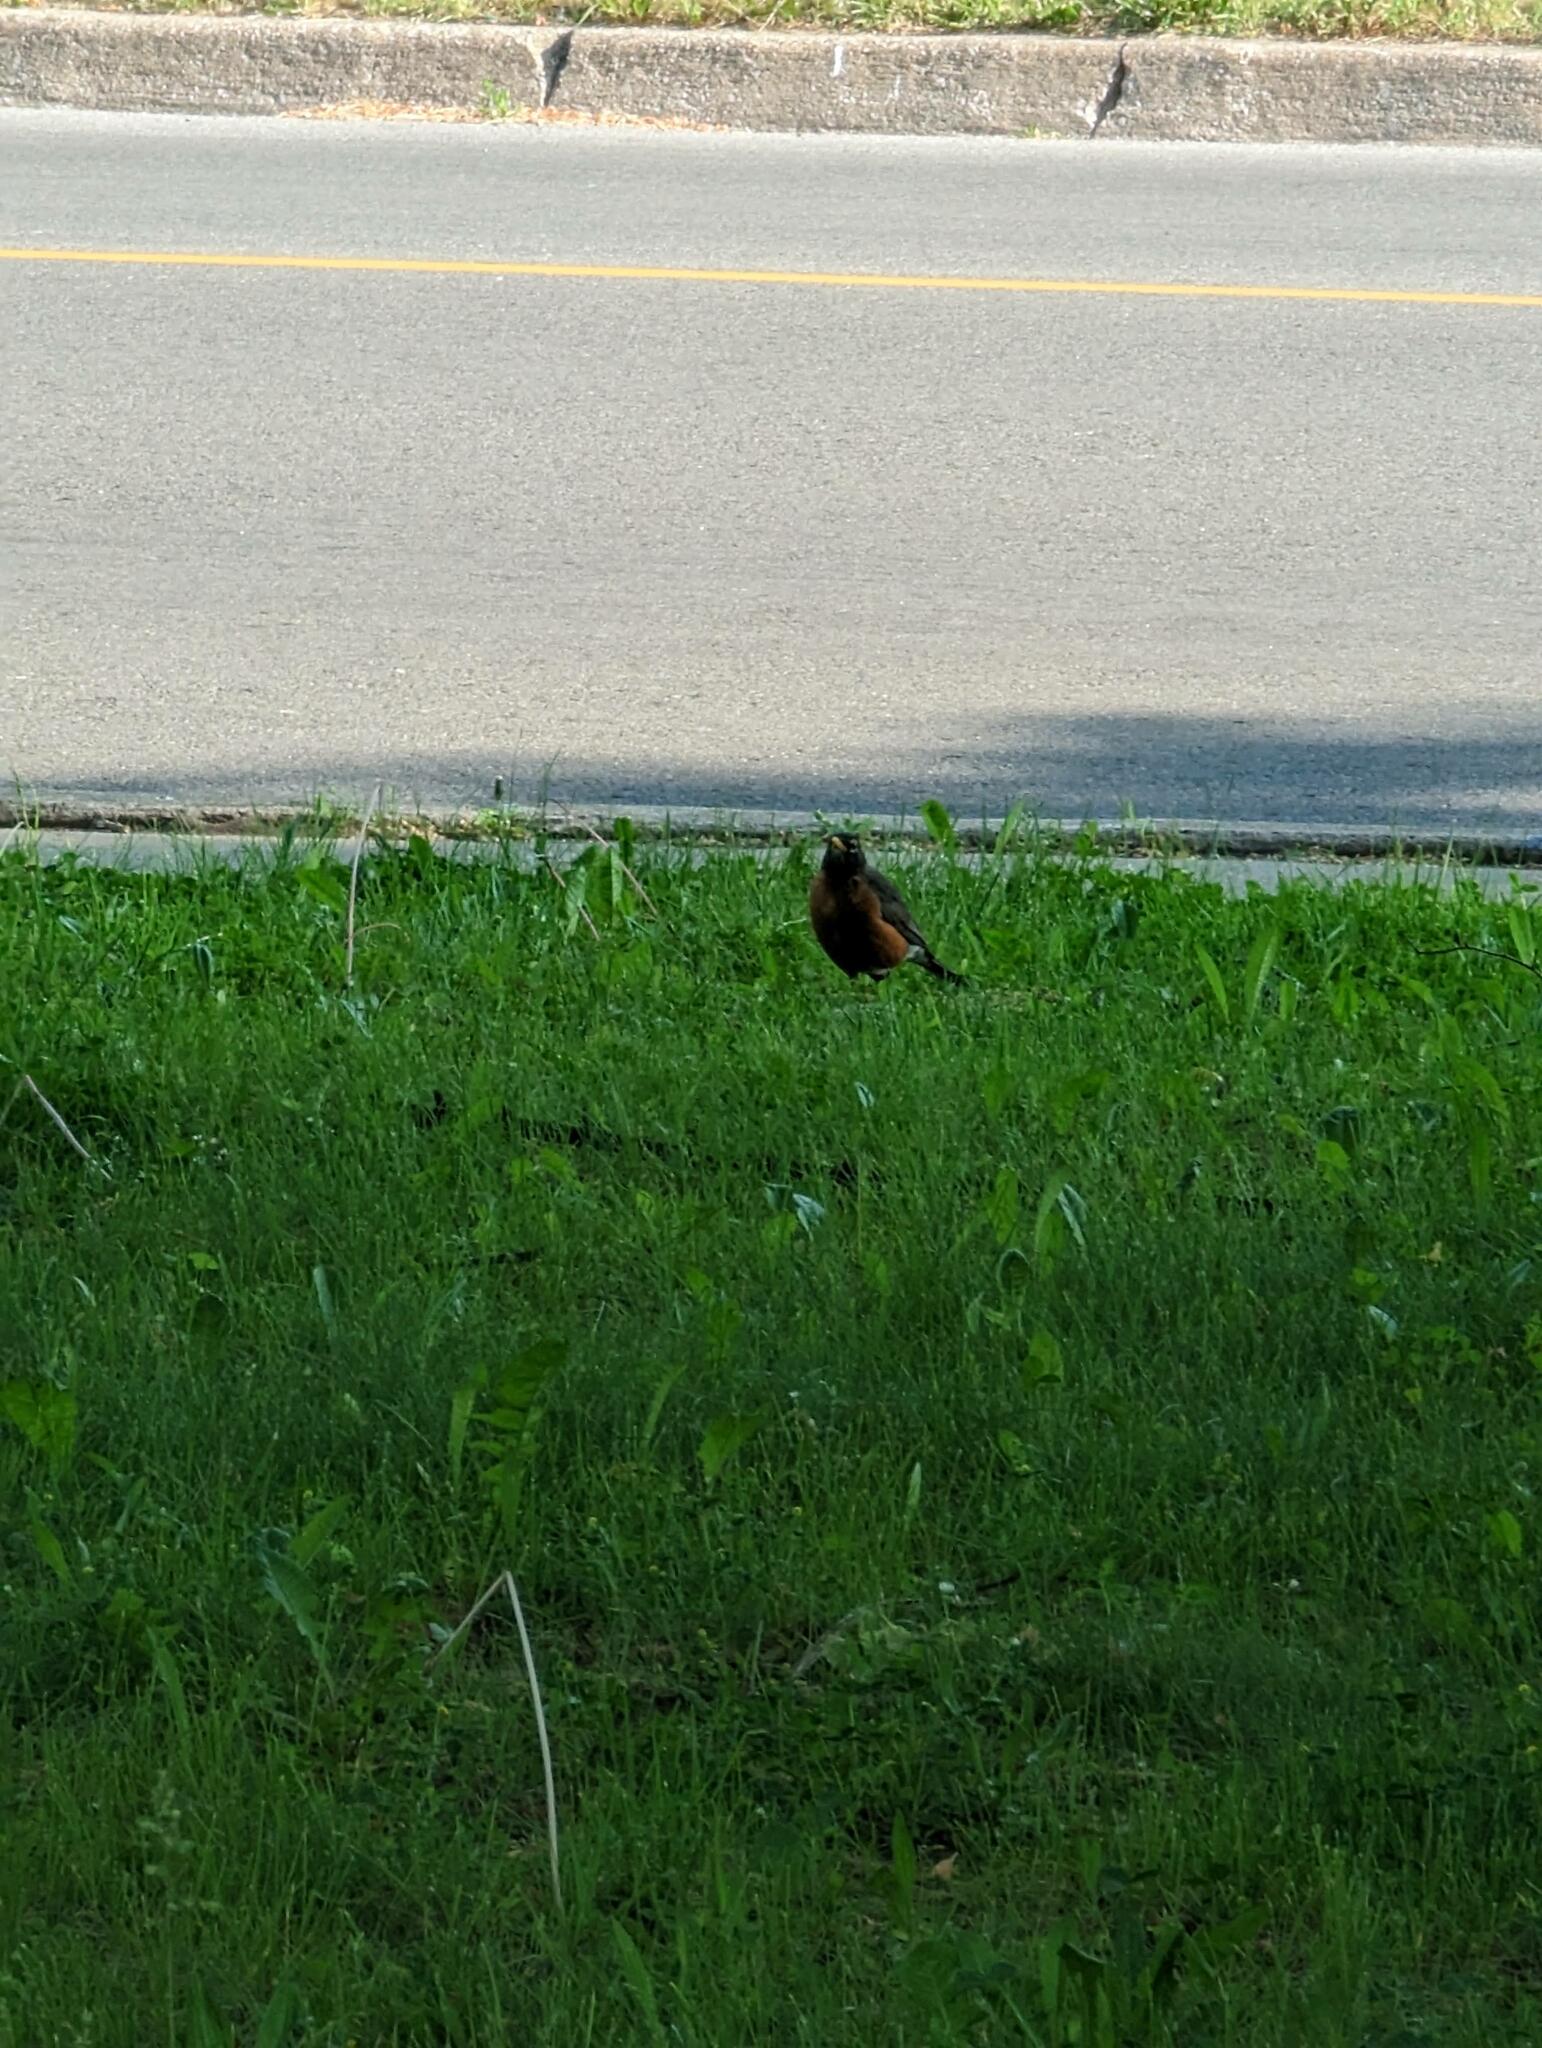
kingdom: Animalia
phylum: Chordata
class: Aves
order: Passeriformes
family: Turdidae
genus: Turdus
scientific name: Turdus migratorius
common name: American robin
